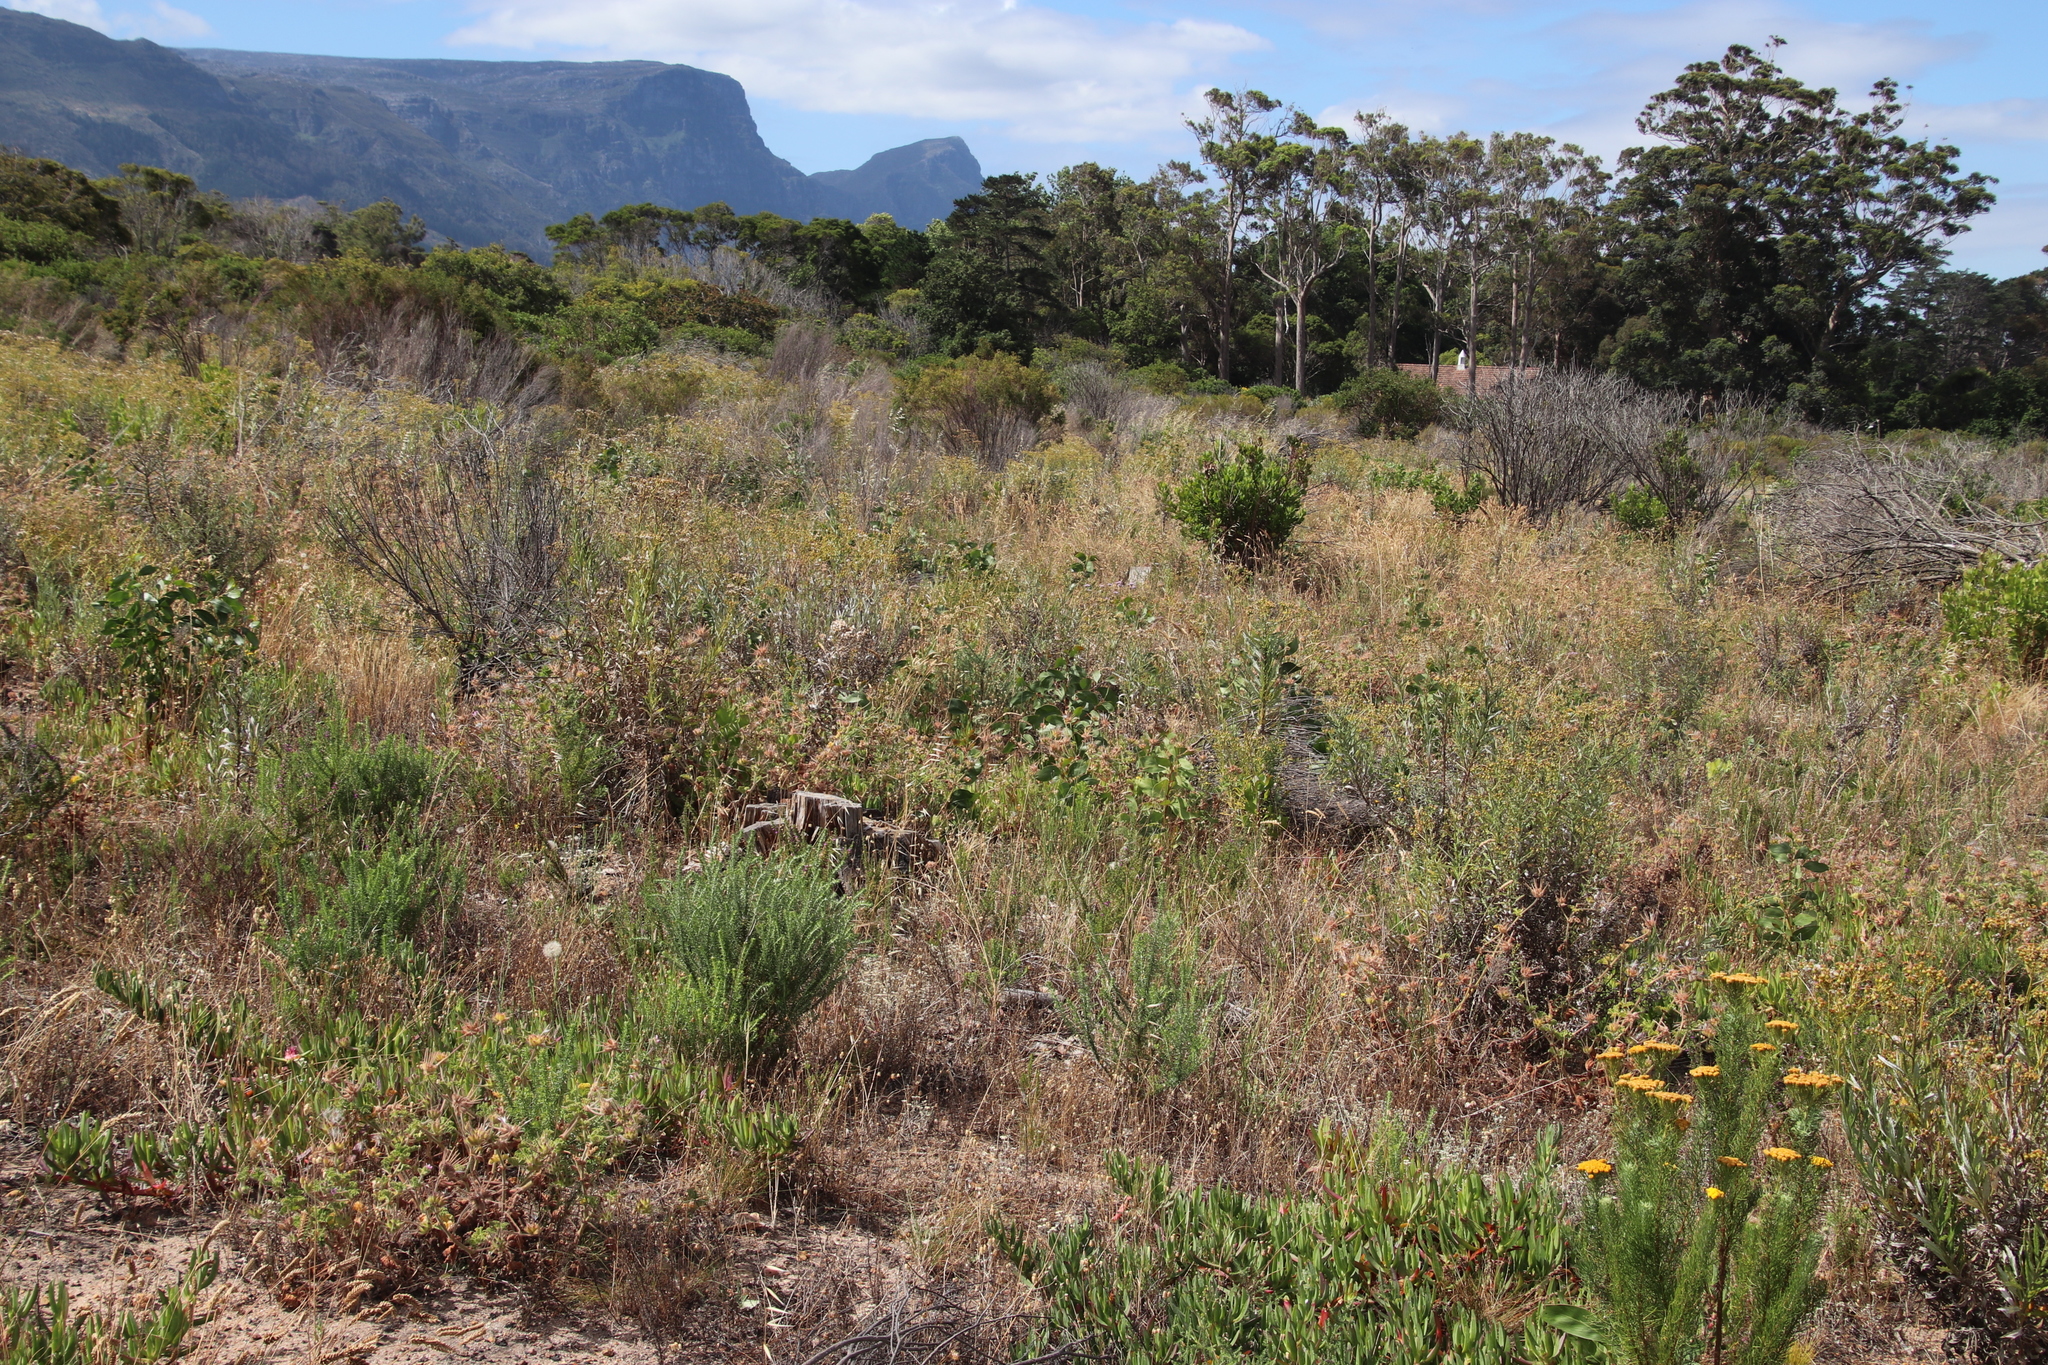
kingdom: Plantae
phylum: Tracheophyta
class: Magnoliopsida
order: Fabales
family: Fabaceae
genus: Acacia
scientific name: Acacia pycnantha
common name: Golden wattle
